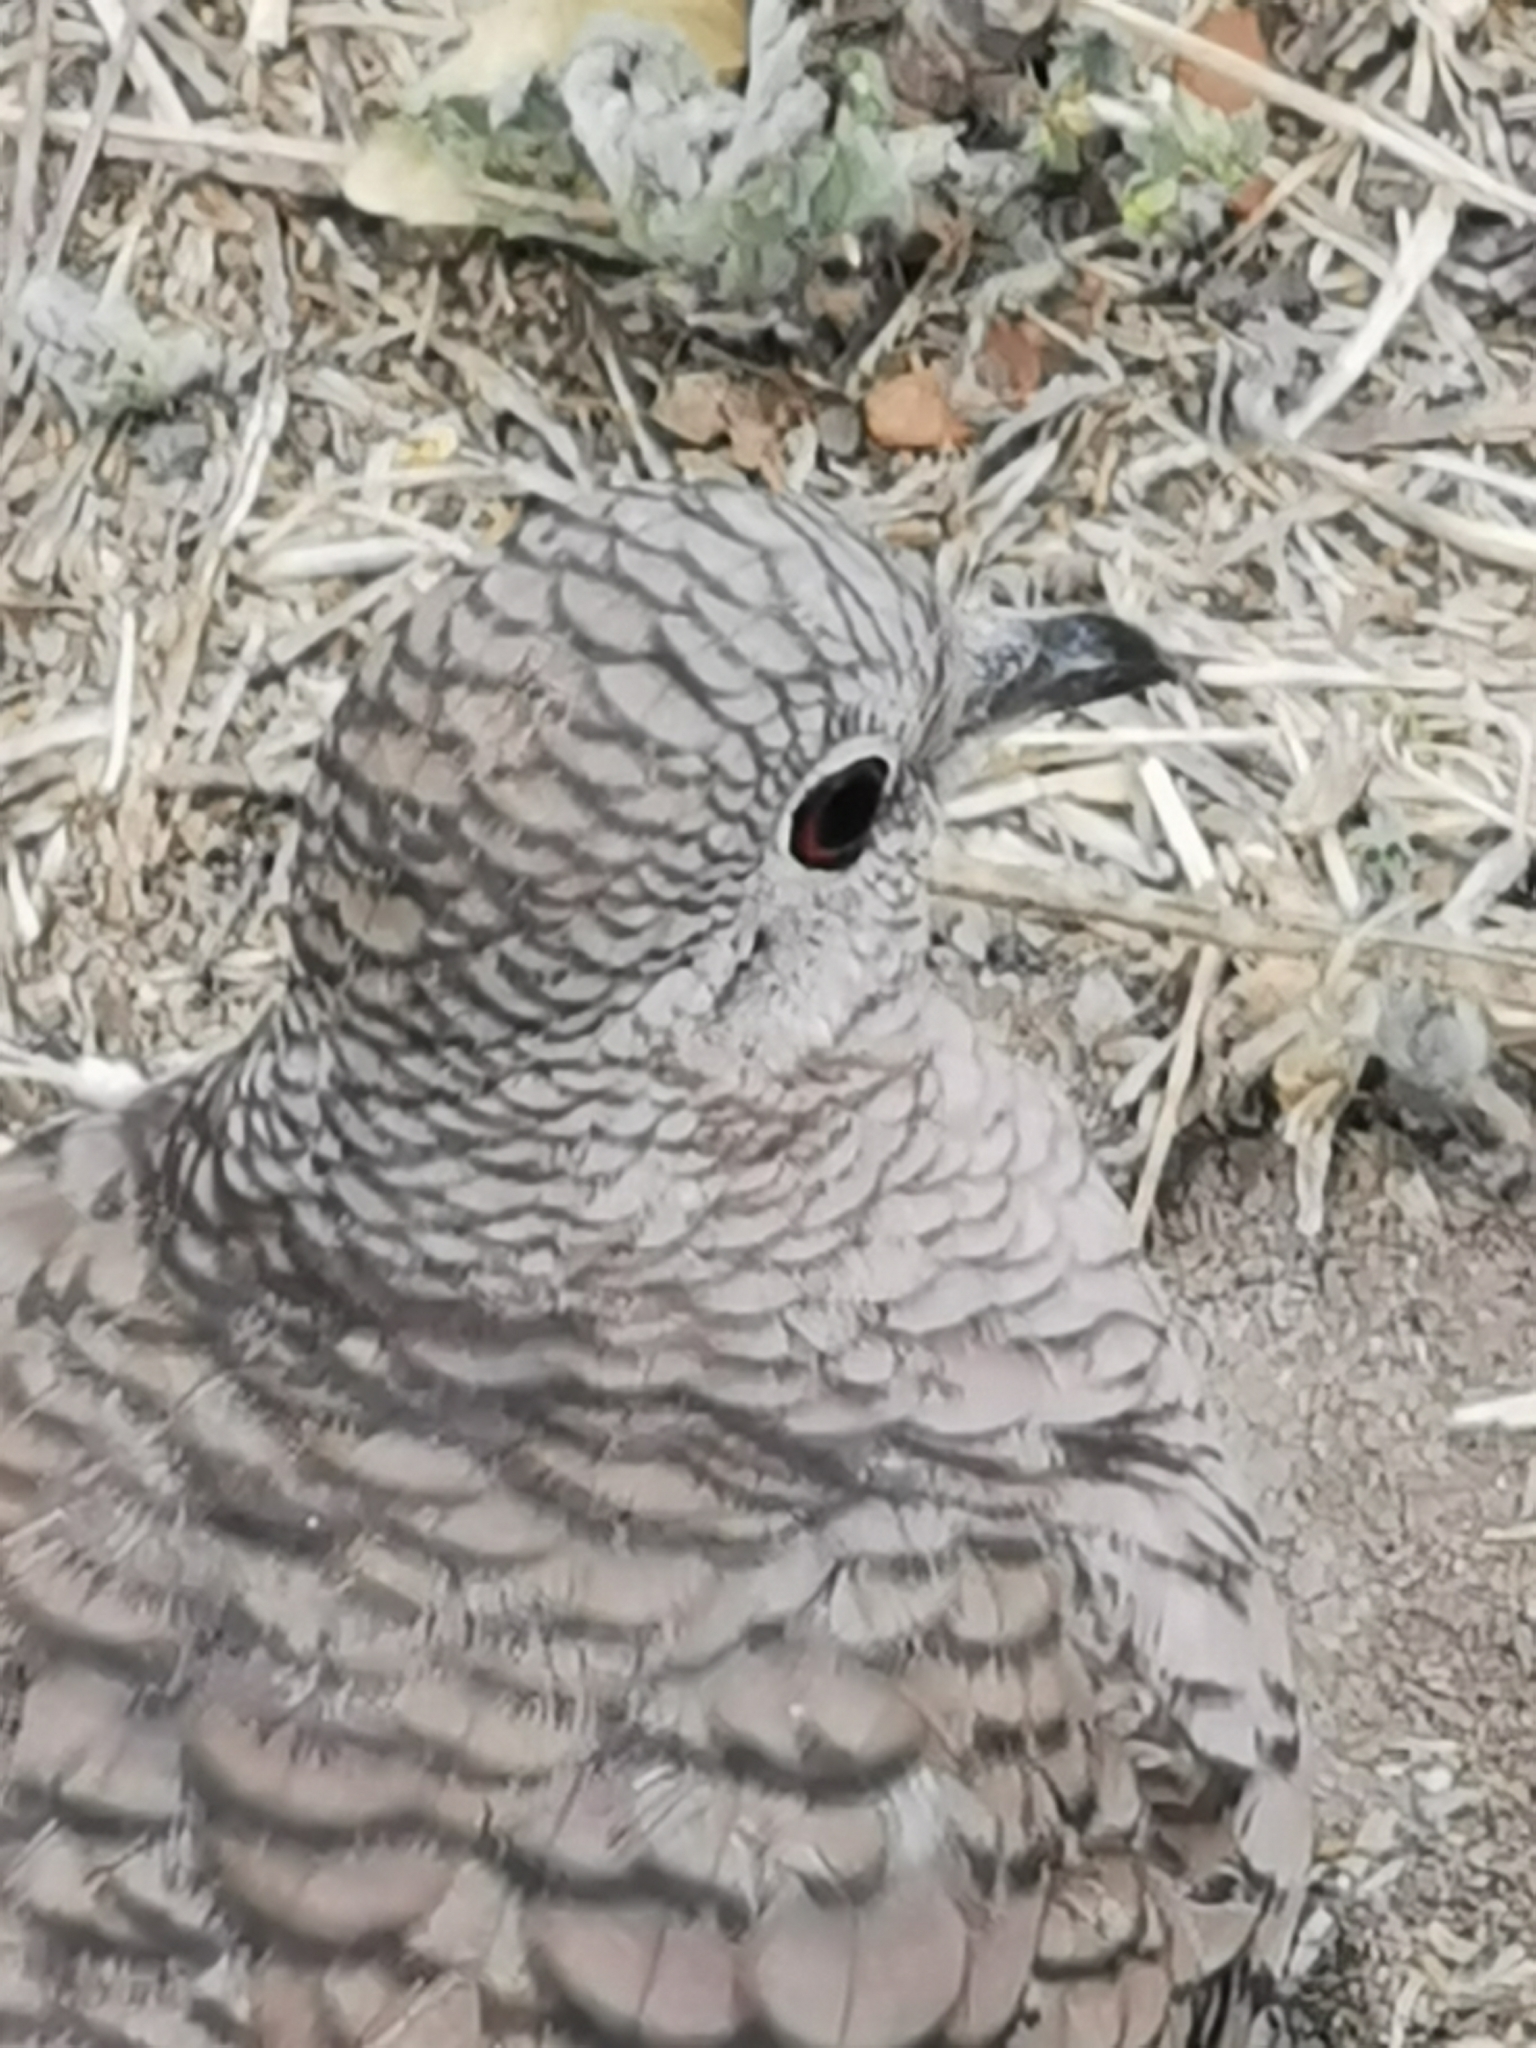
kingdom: Animalia
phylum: Chordata
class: Aves
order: Columbiformes
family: Columbidae
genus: Columbina
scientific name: Columbina inca
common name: Inca dove
